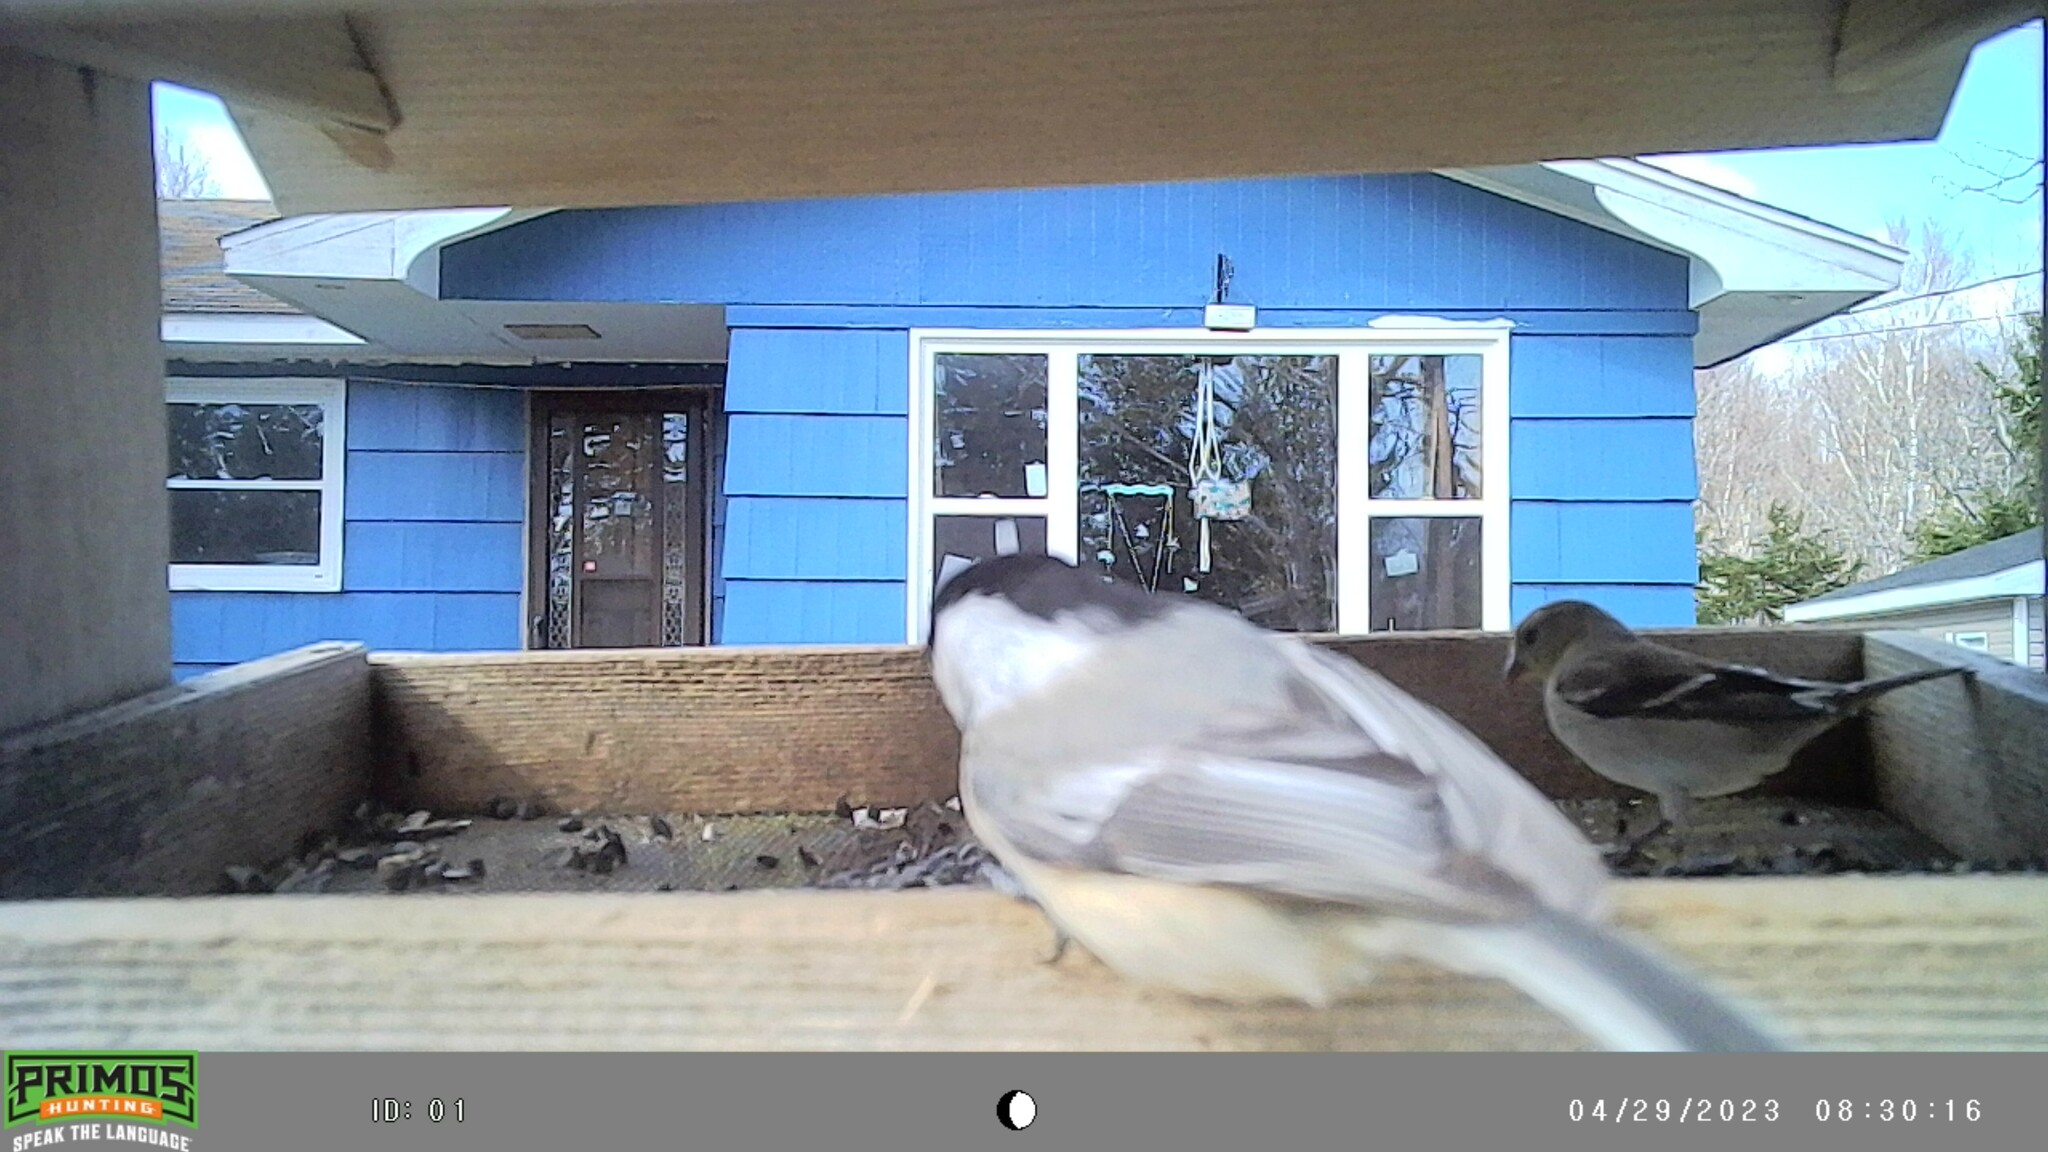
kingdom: Animalia
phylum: Chordata
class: Aves
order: Passeriformes
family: Fringillidae
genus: Spinus
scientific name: Spinus tristis
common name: American goldfinch
